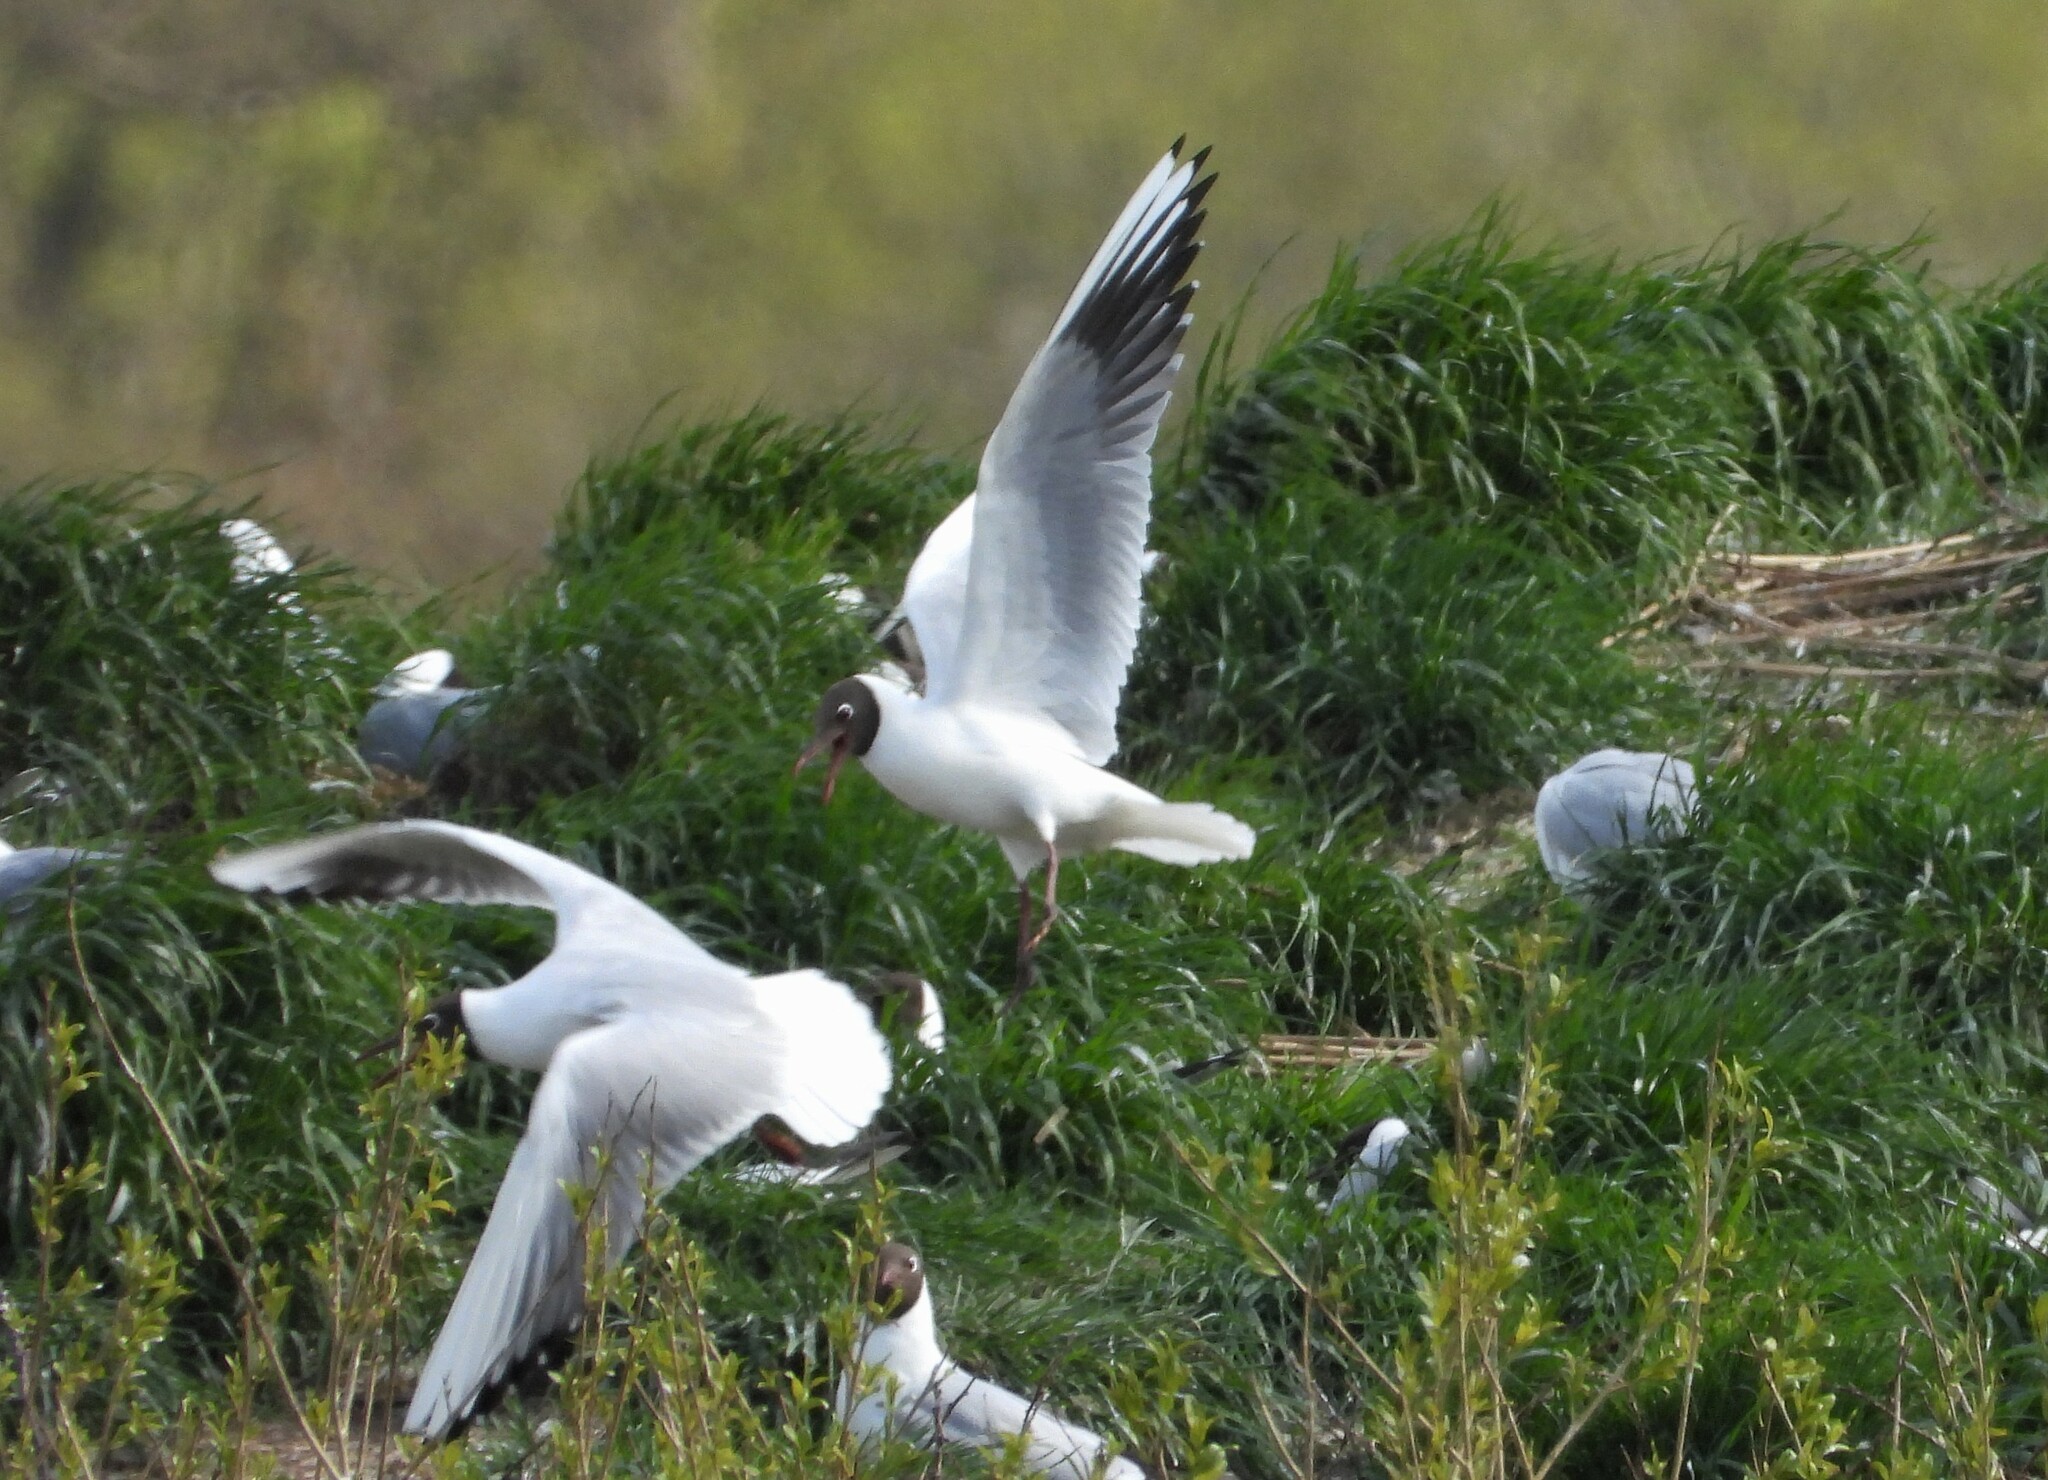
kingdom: Animalia
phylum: Chordata
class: Aves
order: Charadriiformes
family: Laridae
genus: Chroicocephalus
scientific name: Chroicocephalus ridibundus
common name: Black-headed gull
